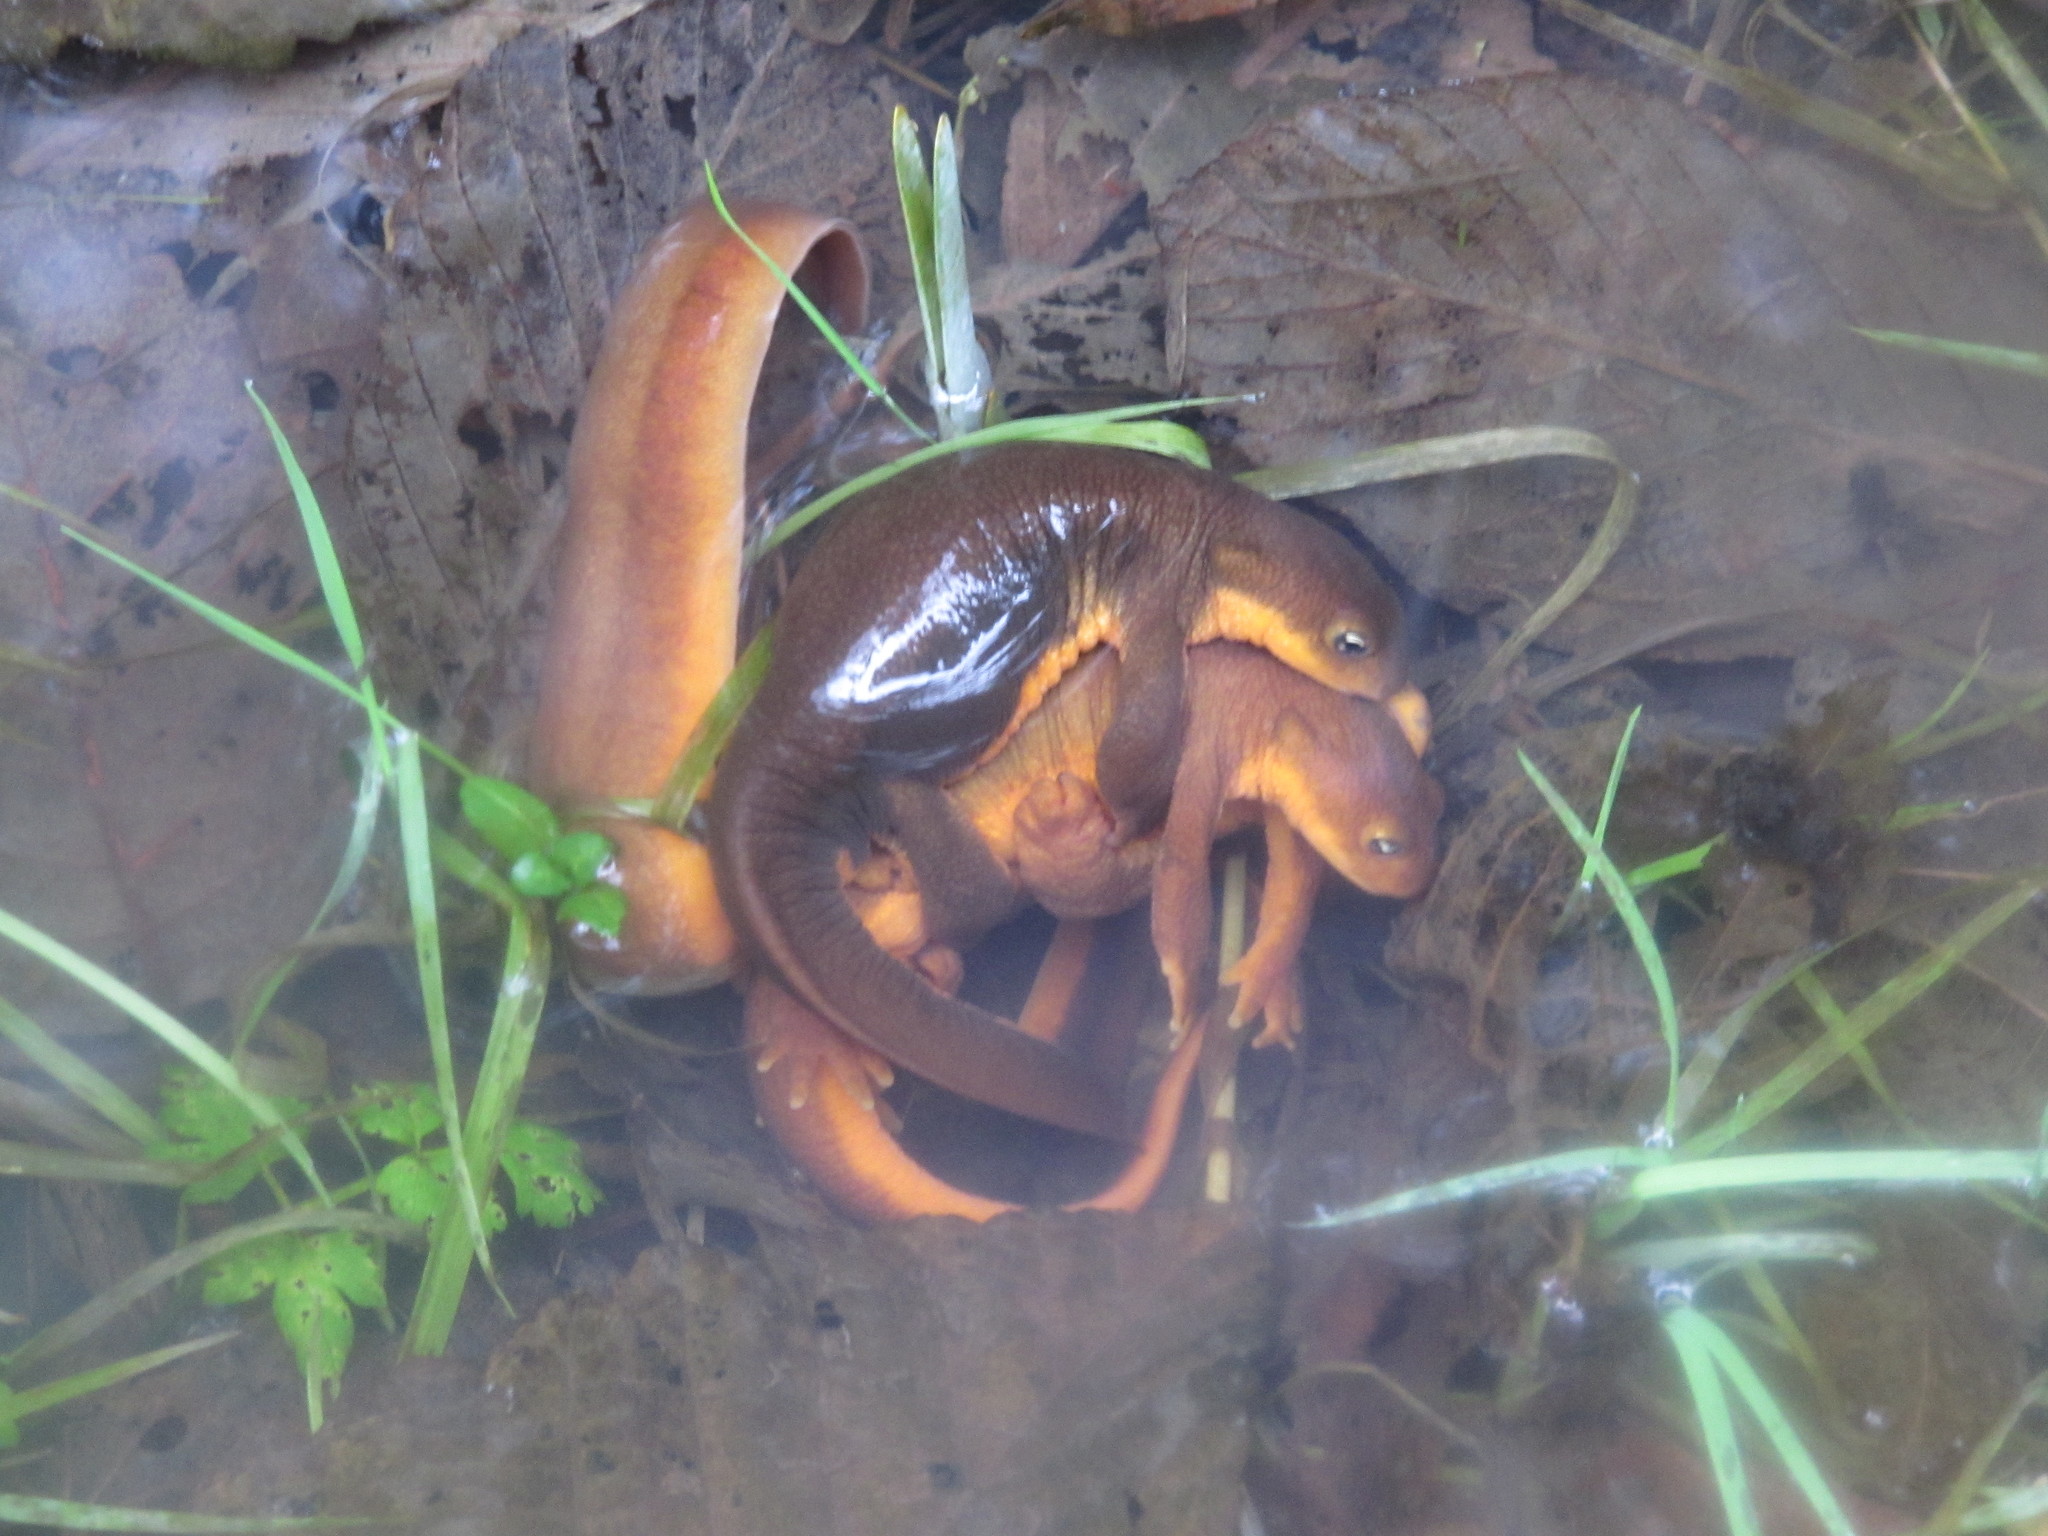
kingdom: Animalia
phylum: Chordata
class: Amphibia
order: Caudata
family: Salamandridae
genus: Taricha
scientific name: Taricha granulosa
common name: Roughskin newt
